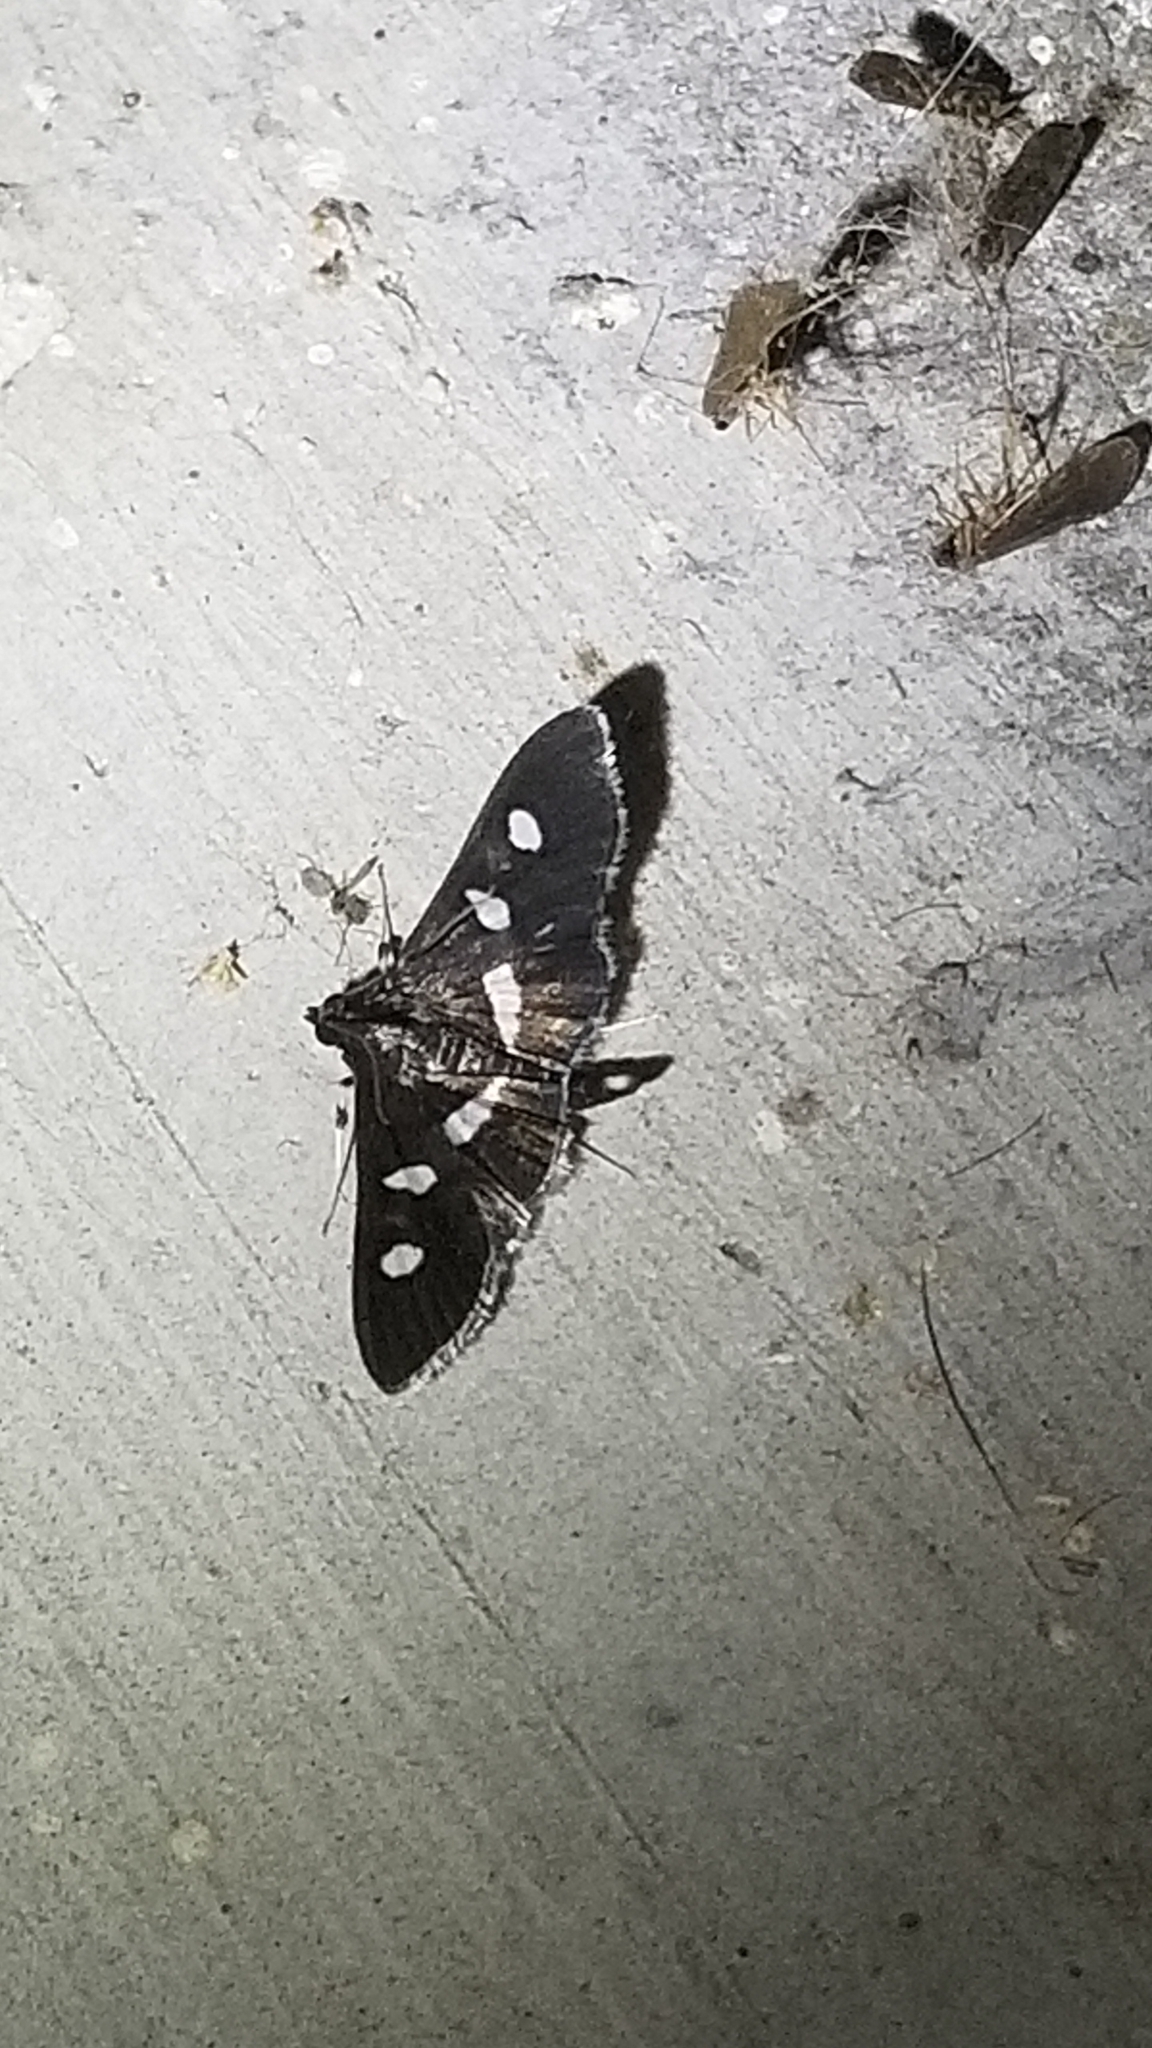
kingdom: Animalia
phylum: Arthropoda
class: Insecta
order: Lepidoptera
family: Crambidae
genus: Desmia
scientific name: Desmia funeralis
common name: Grape leaf folder moth
